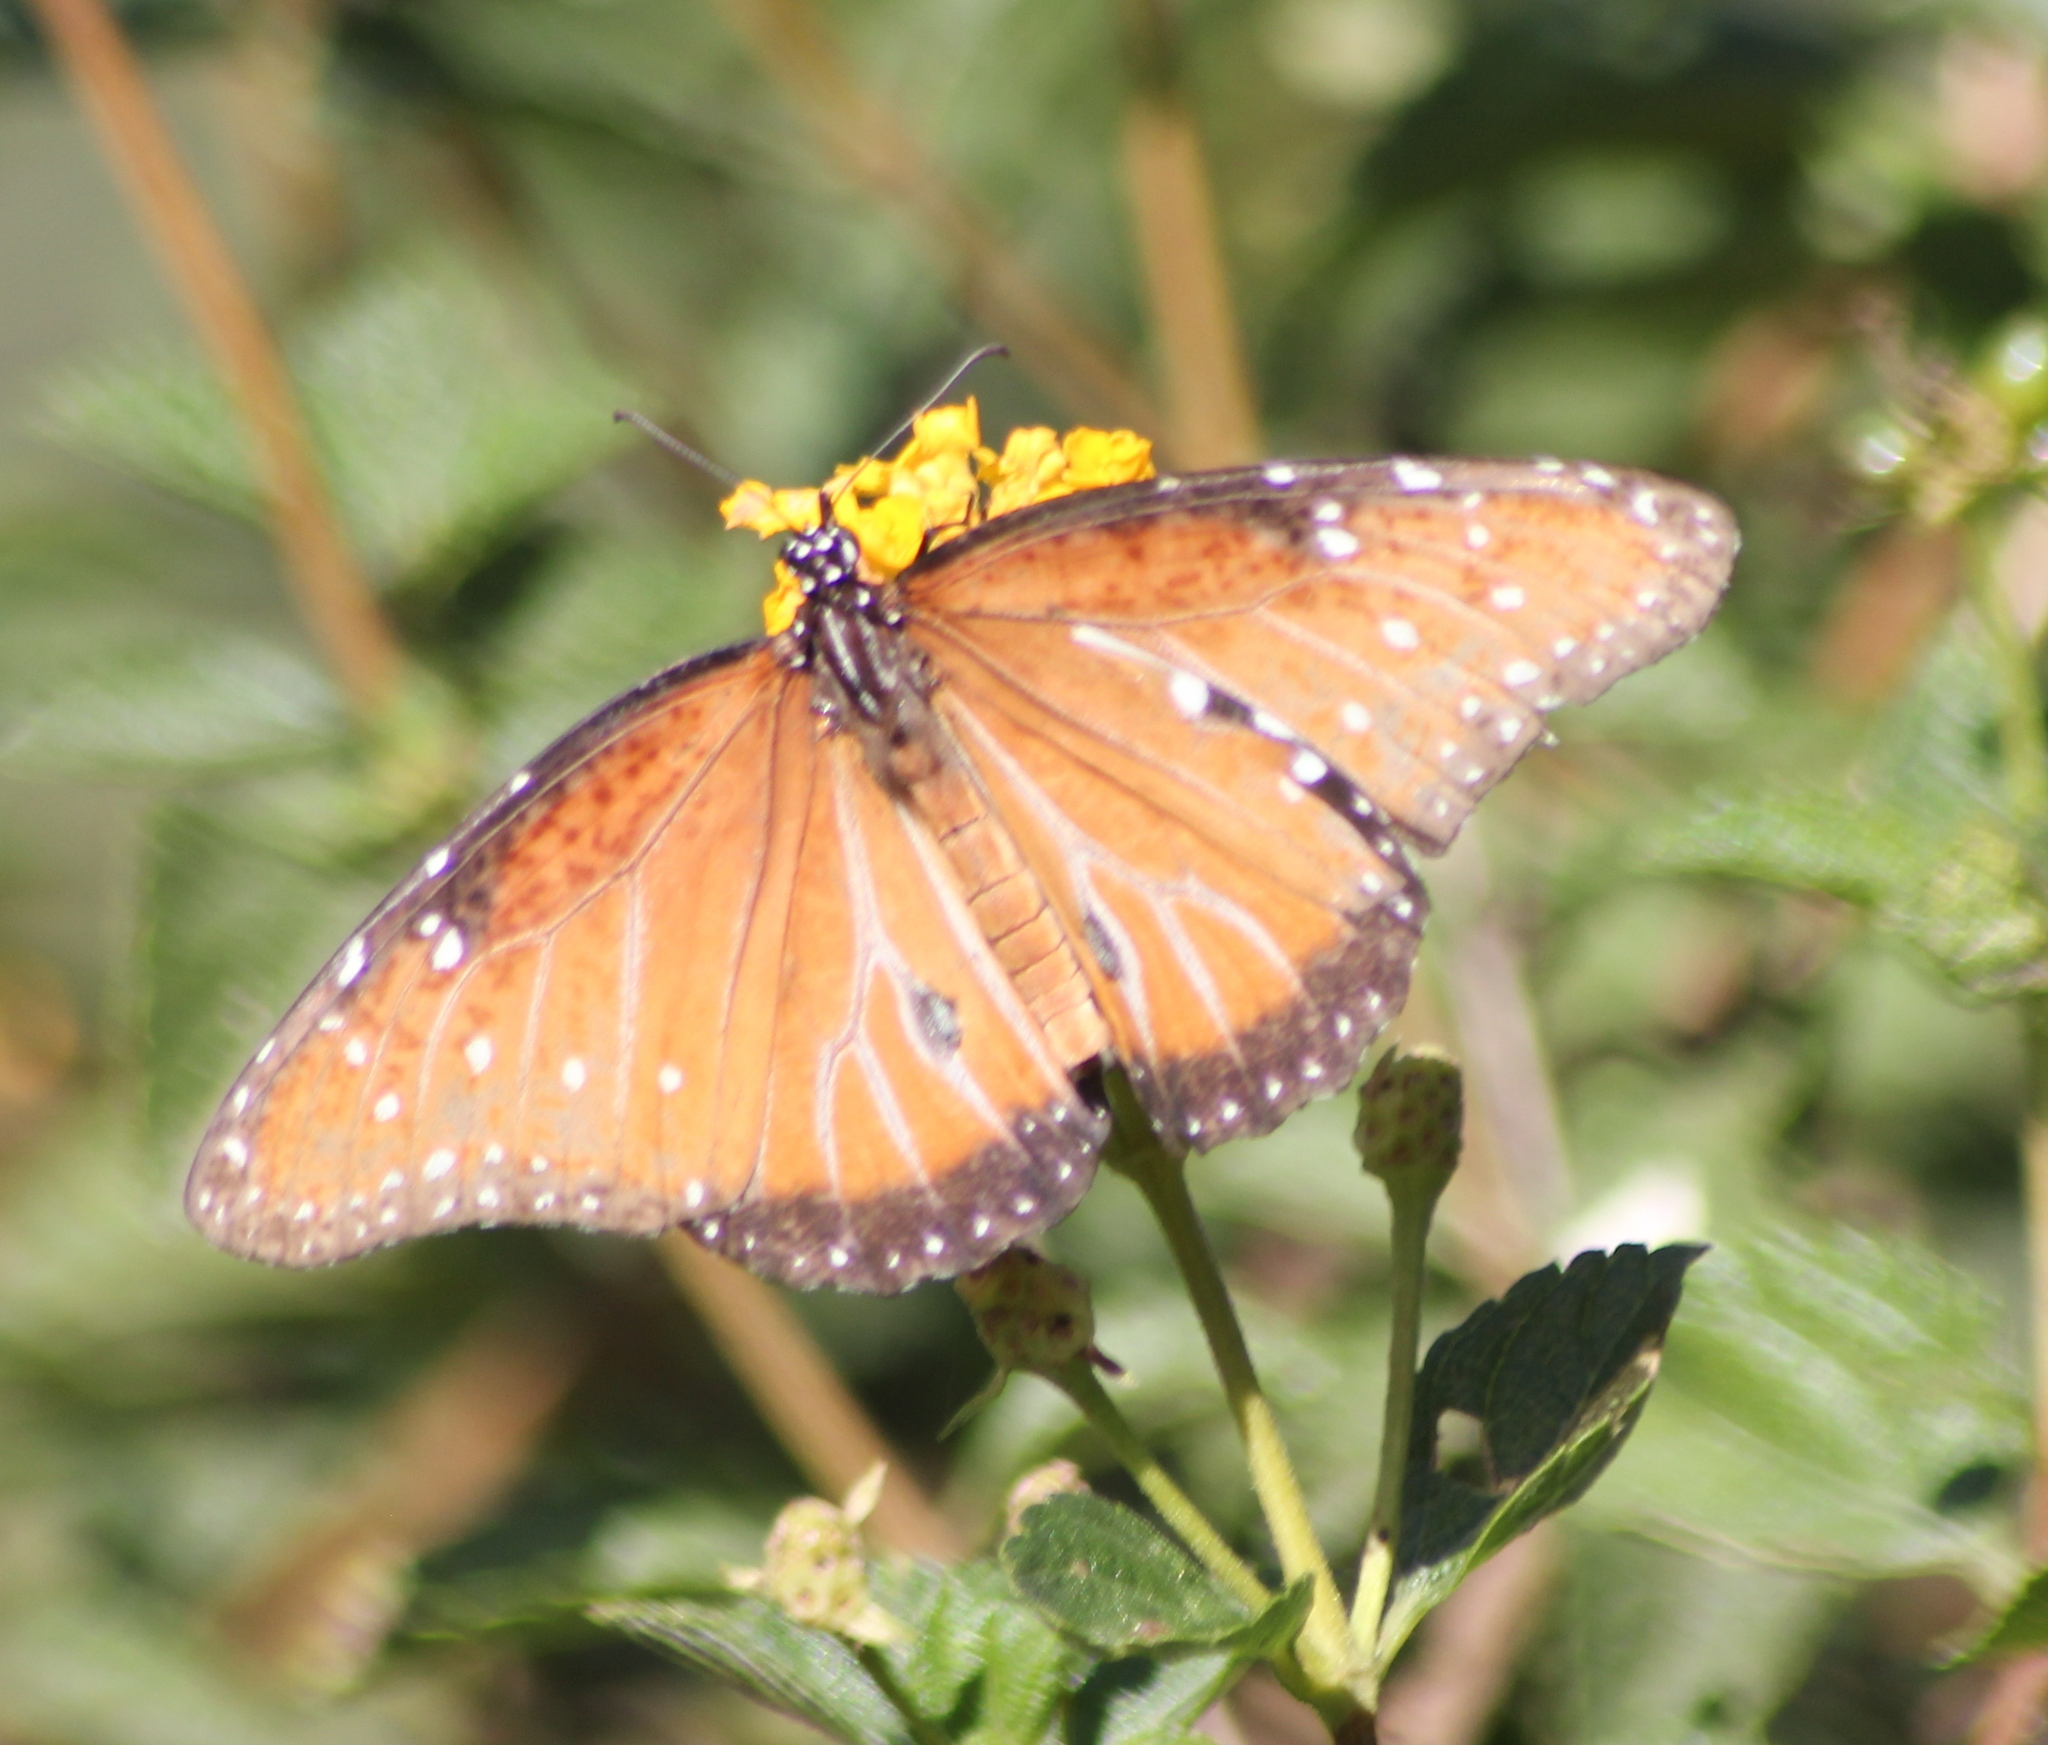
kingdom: Animalia
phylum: Arthropoda
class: Insecta
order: Lepidoptera
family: Nymphalidae
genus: Danaus
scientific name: Danaus gilippus
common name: Queen
